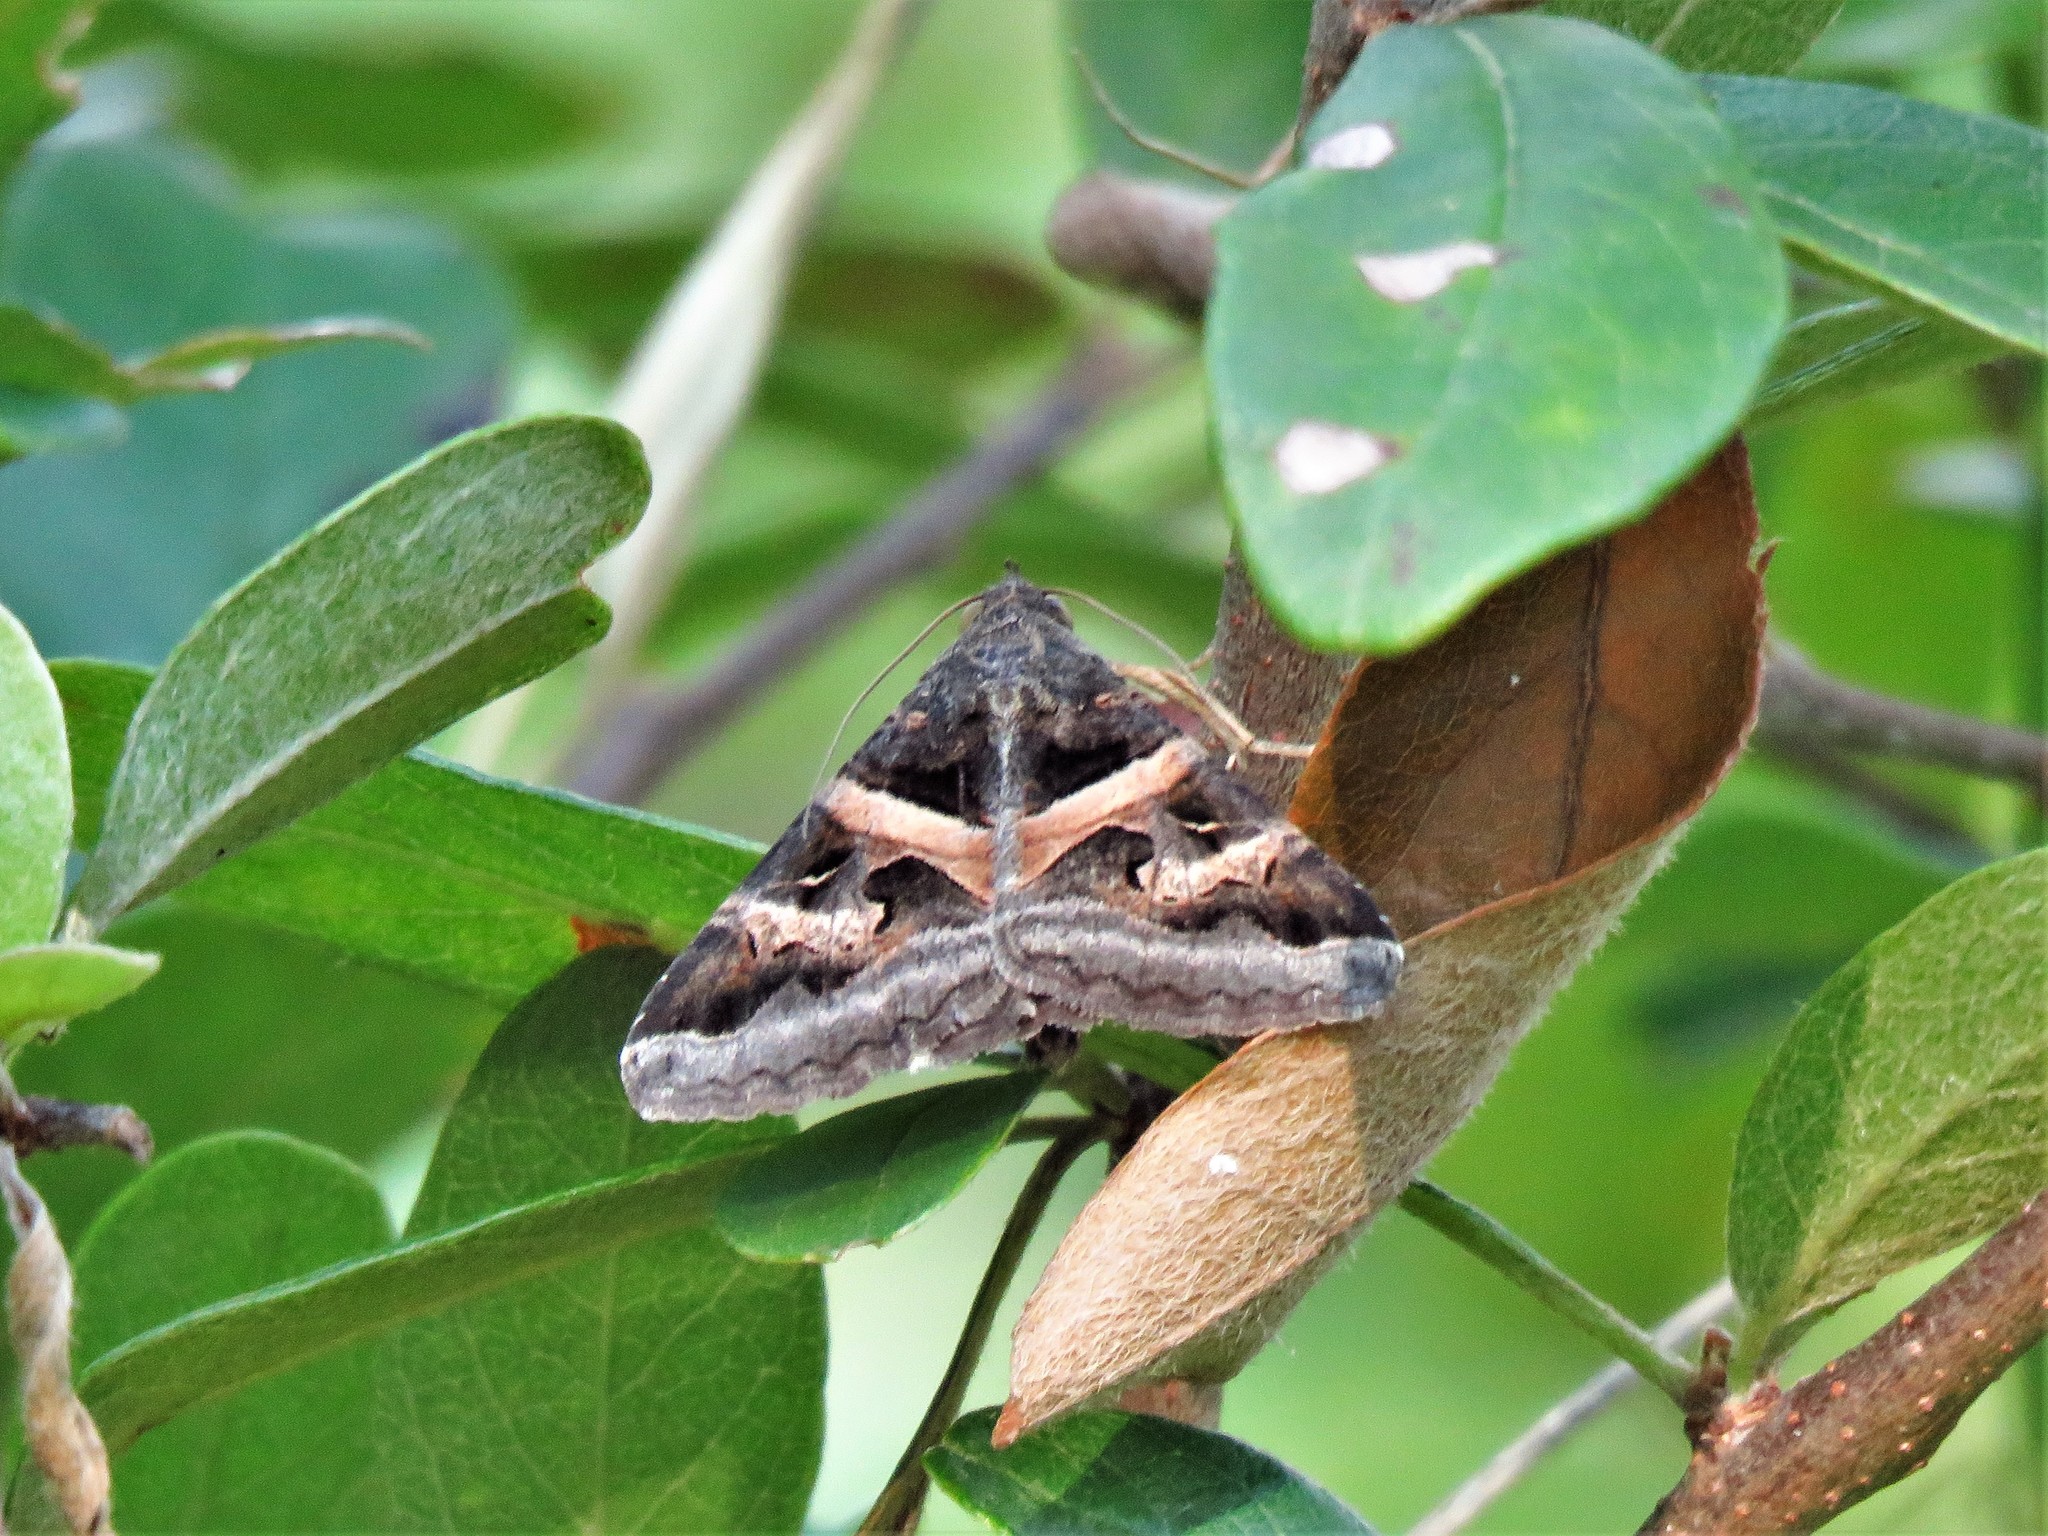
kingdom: Animalia
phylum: Arthropoda
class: Insecta
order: Lepidoptera
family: Erebidae
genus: Melipotis
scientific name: Melipotis indomita
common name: Moth
